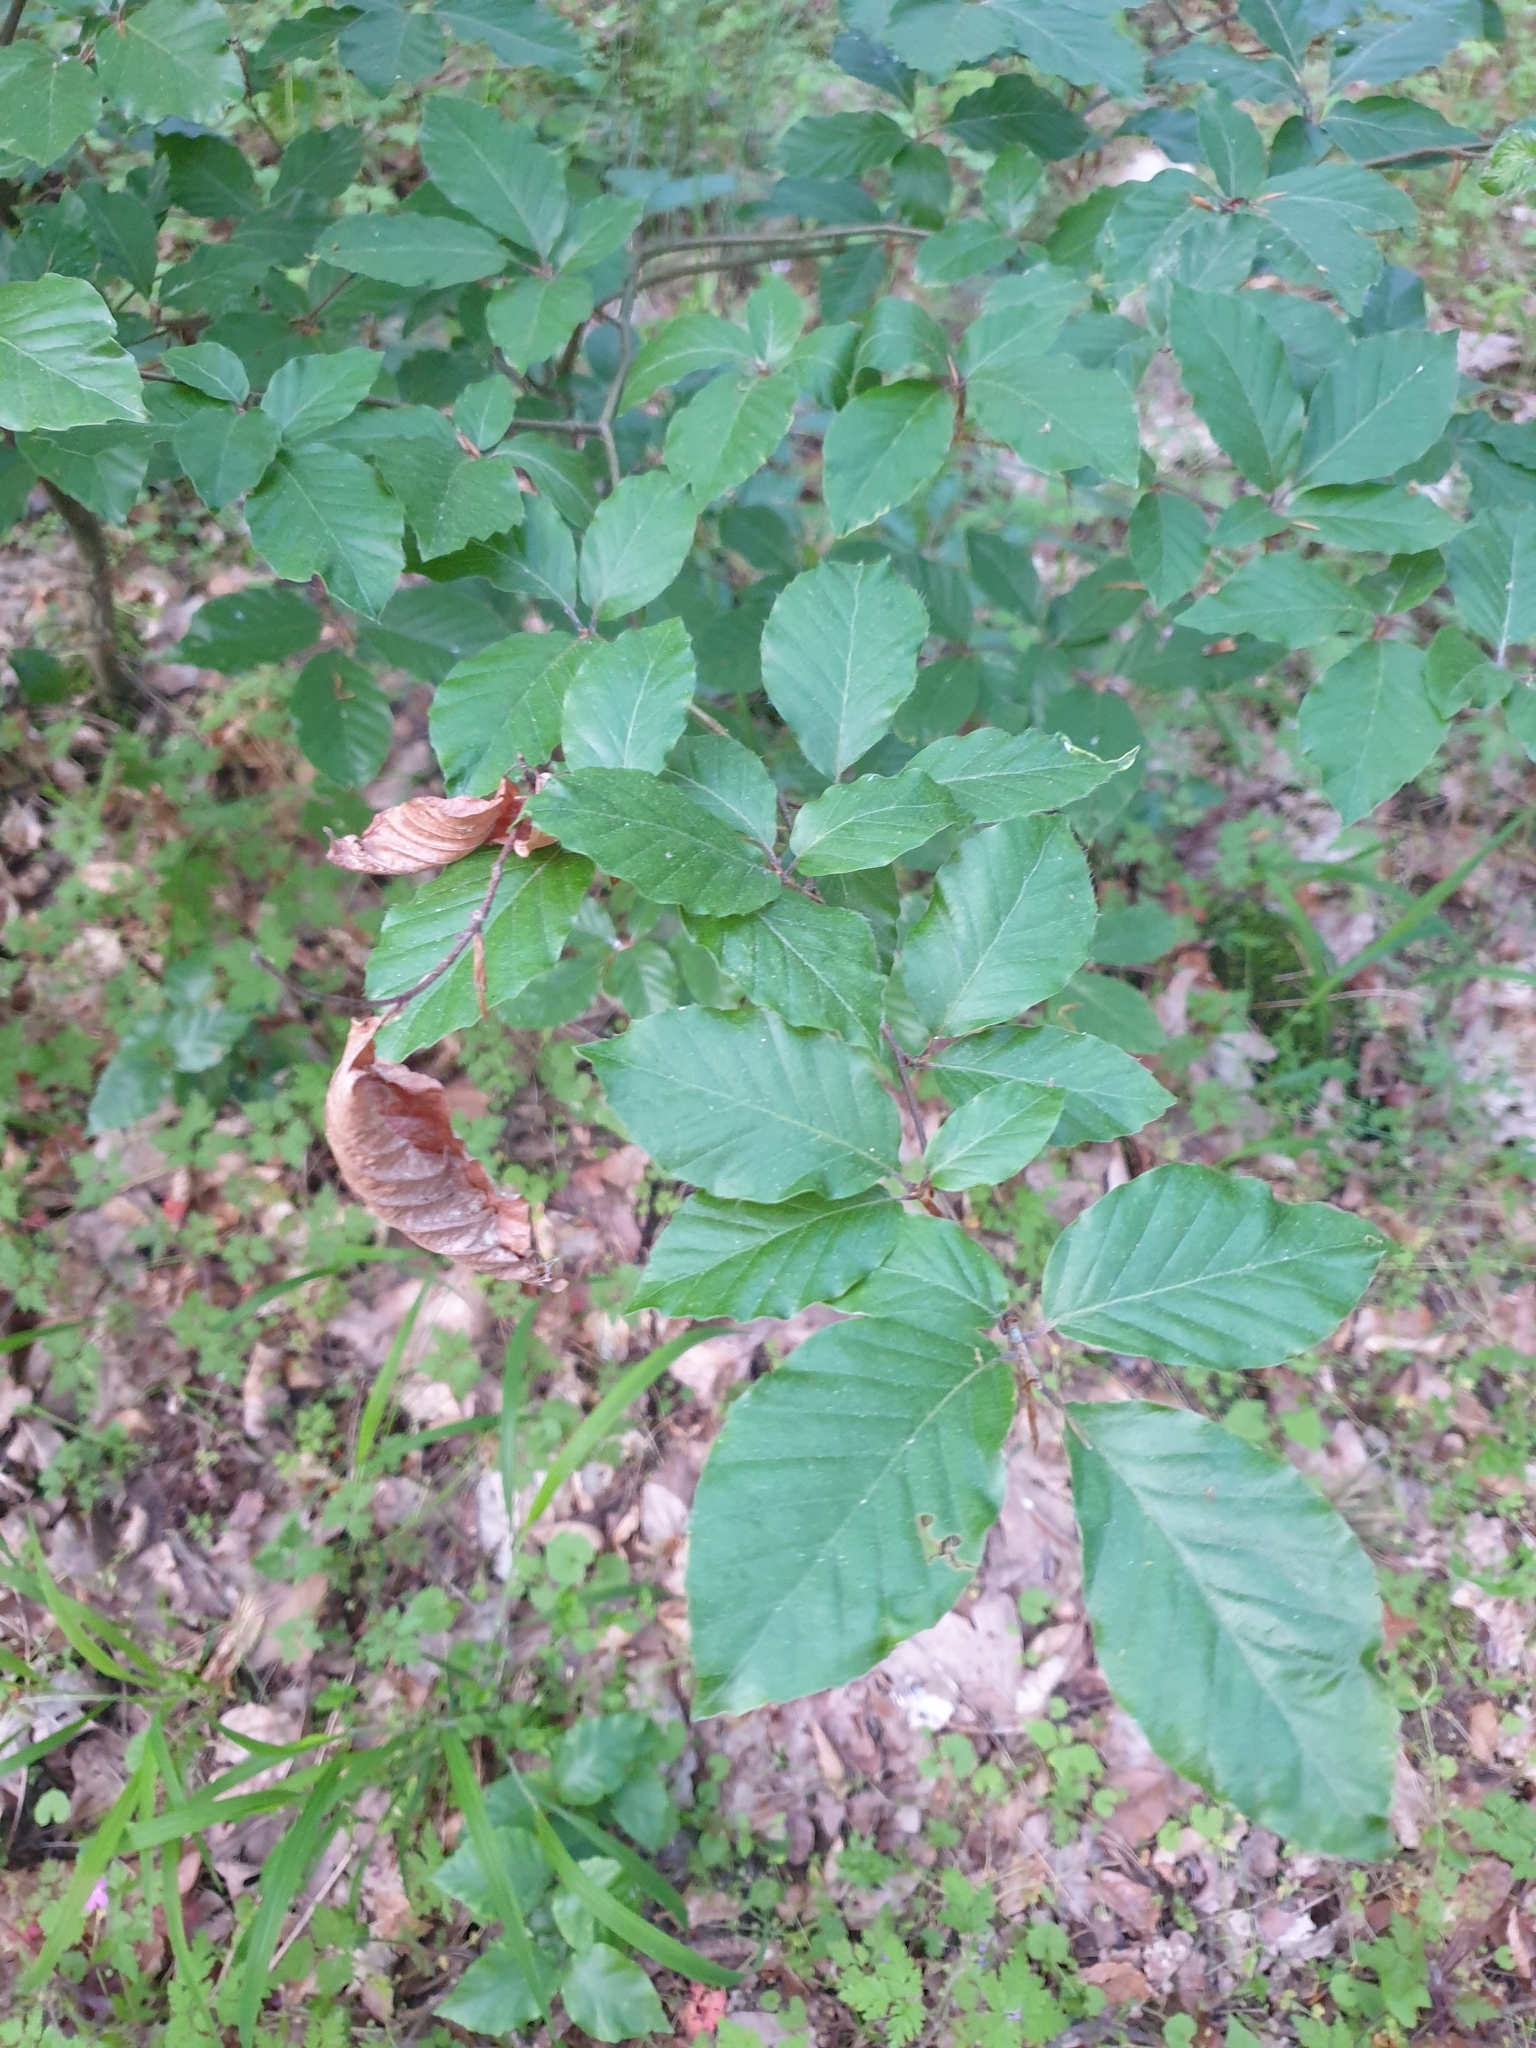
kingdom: Plantae
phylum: Tracheophyta
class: Magnoliopsida
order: Fagales
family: Fagaceae
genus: Fagus
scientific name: Fagus sylvatica
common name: Beech
